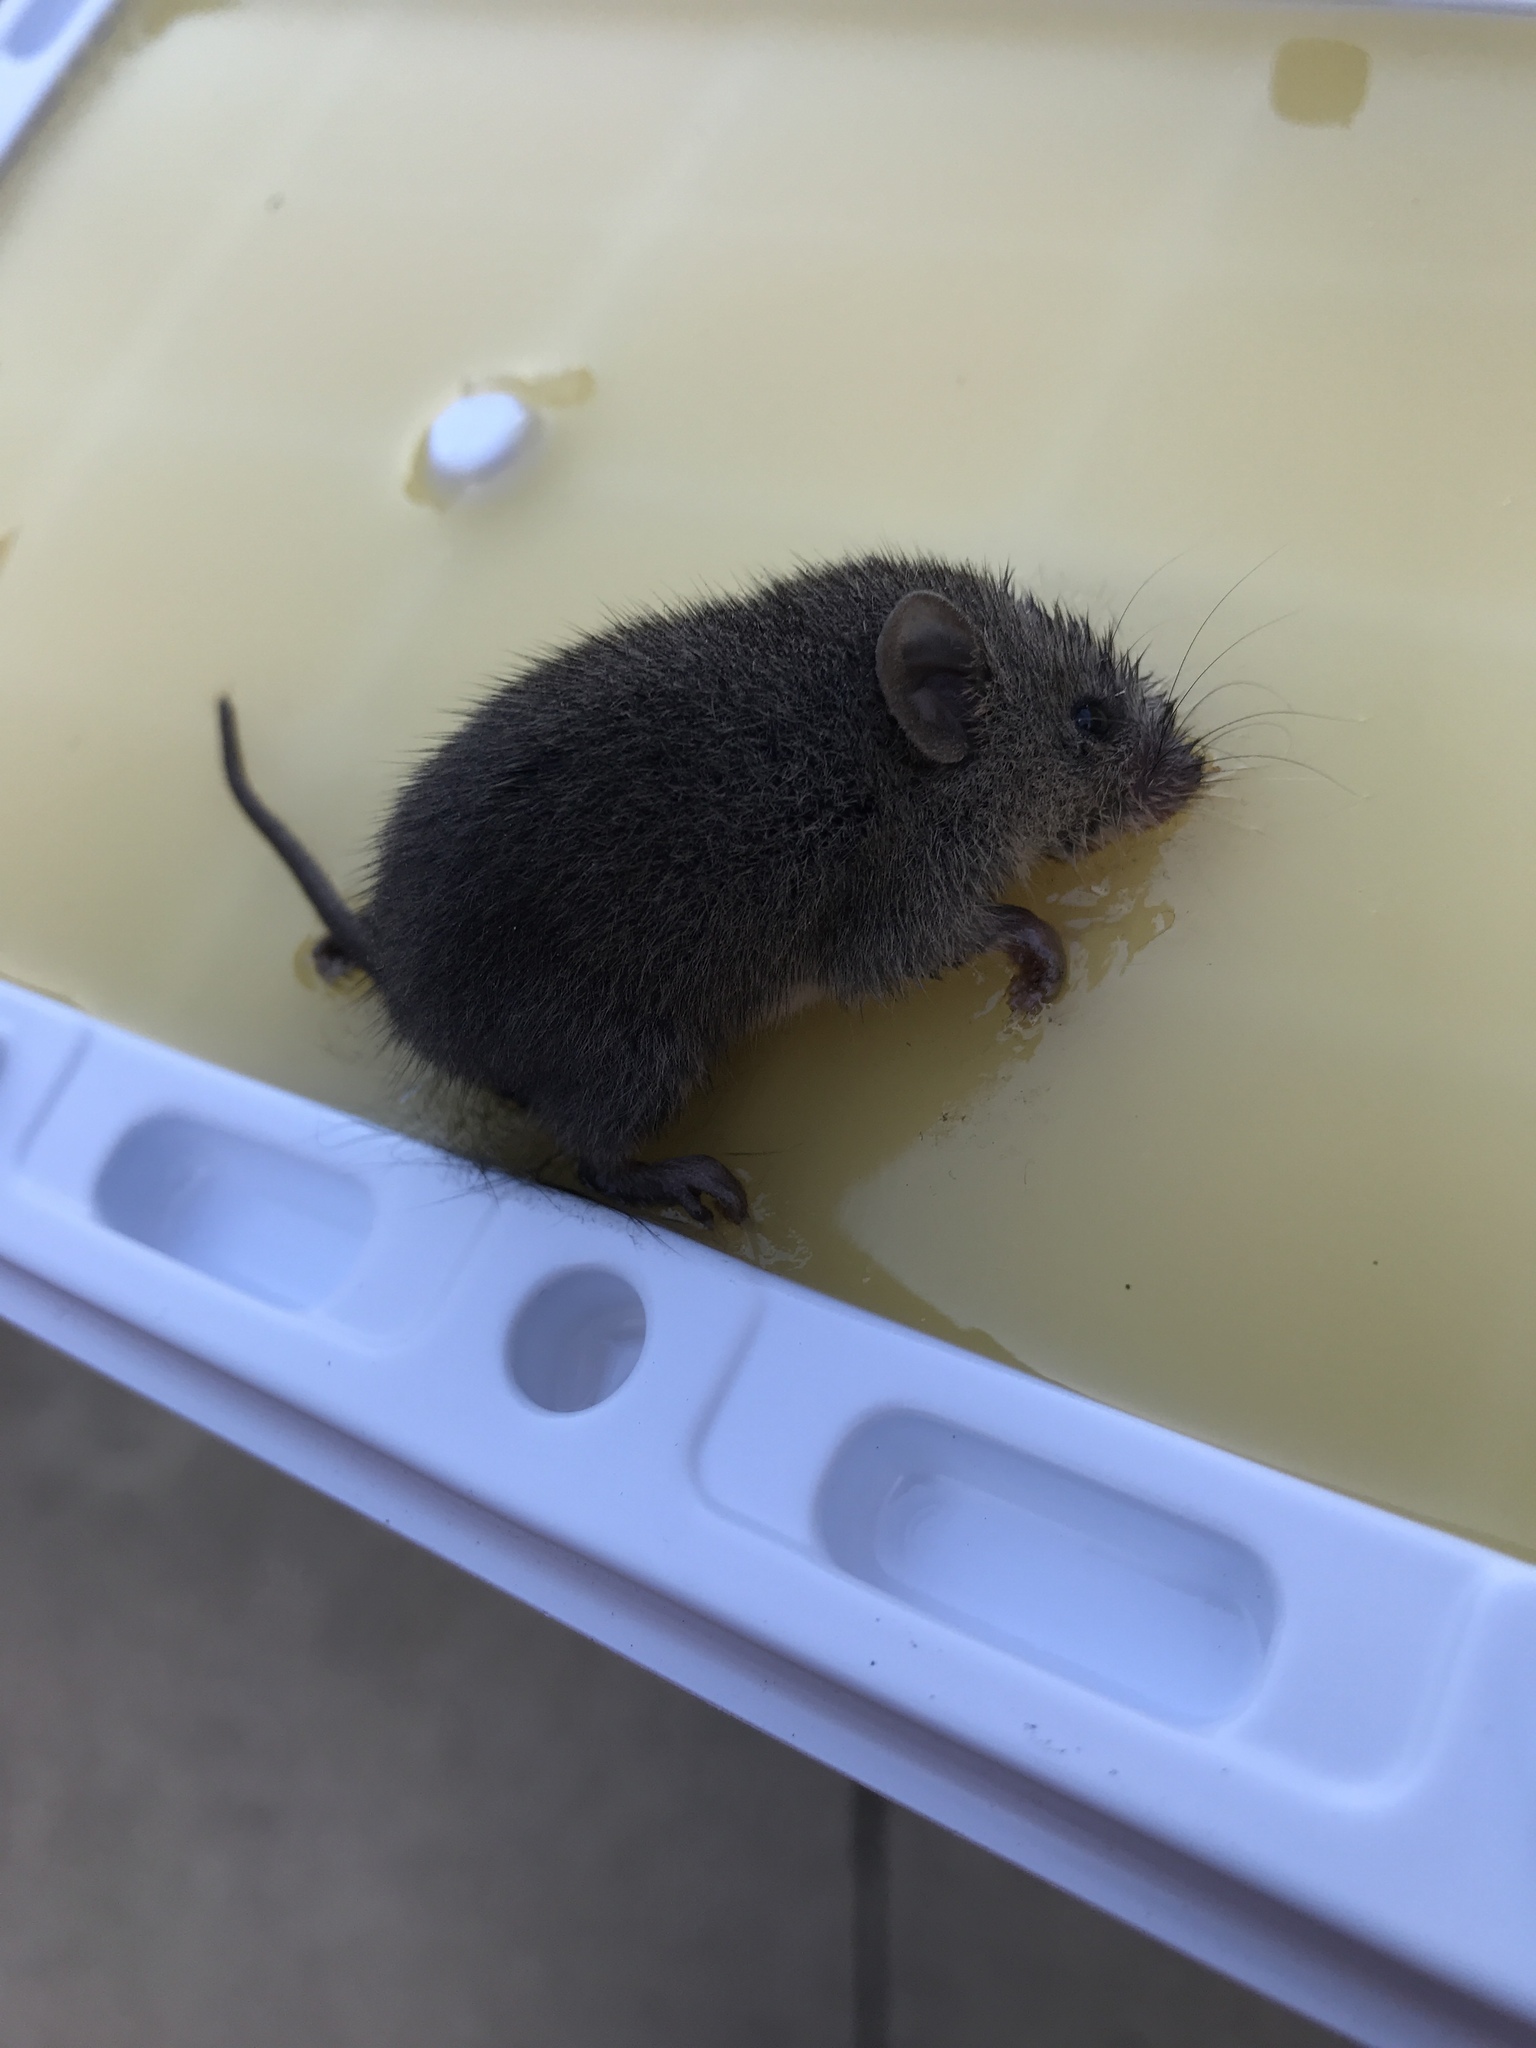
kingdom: Animalia
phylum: Chordata
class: Mammalia
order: Rodentia
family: Muridae
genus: Mus
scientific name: Mus musculus
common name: House mouse
